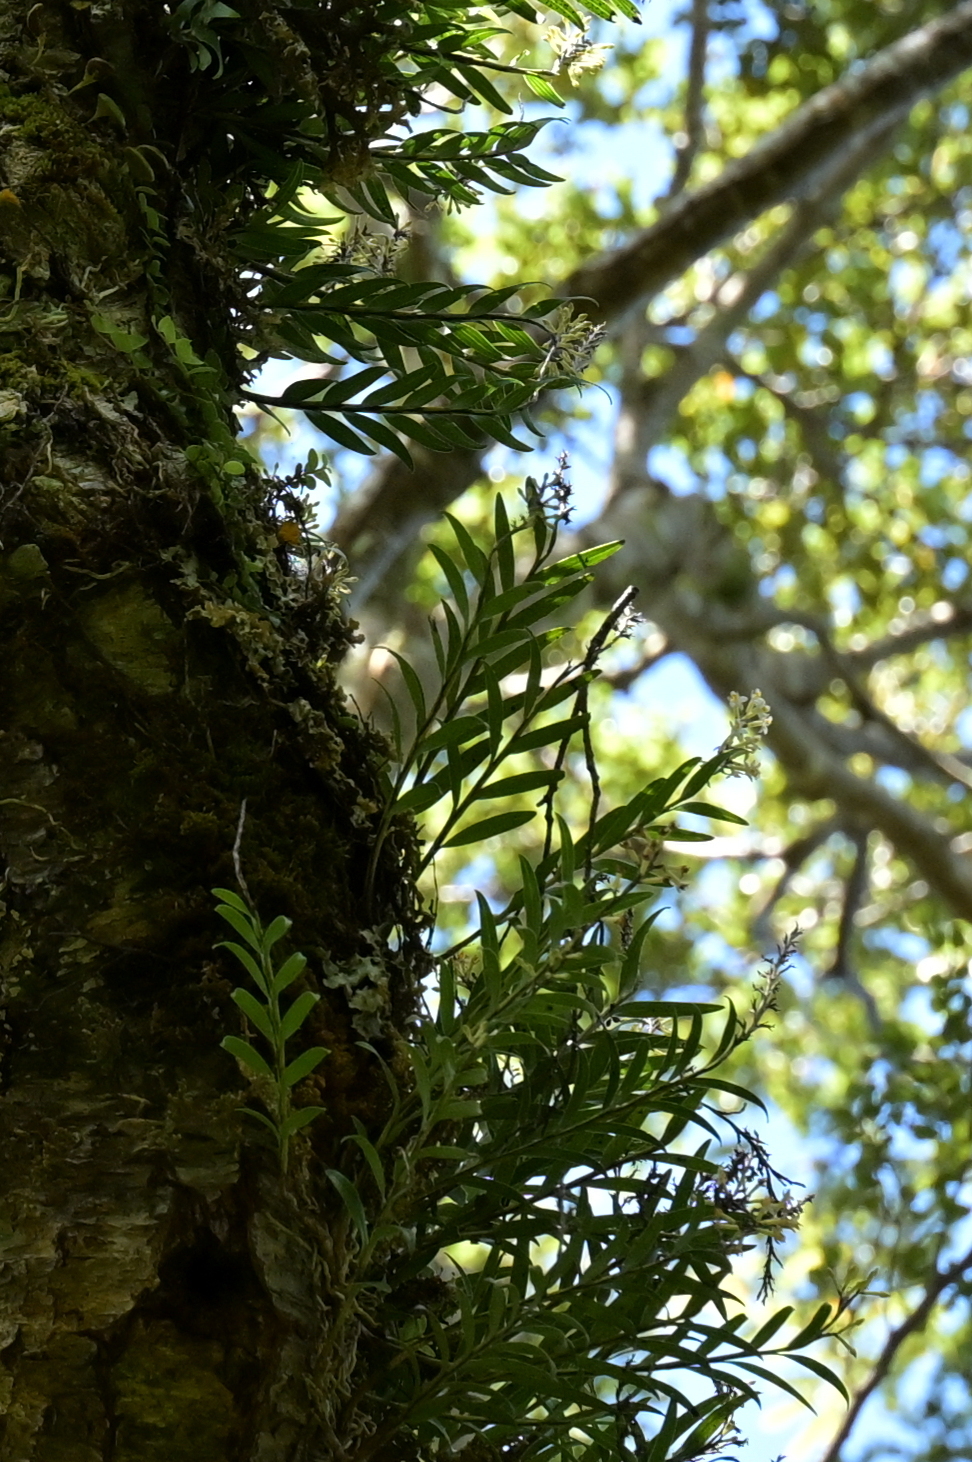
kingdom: Plantae
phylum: Tracheophyta
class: Liliopsida
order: Asparagales
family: Orchidaceae
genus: Earina
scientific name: Earina autumnalis
